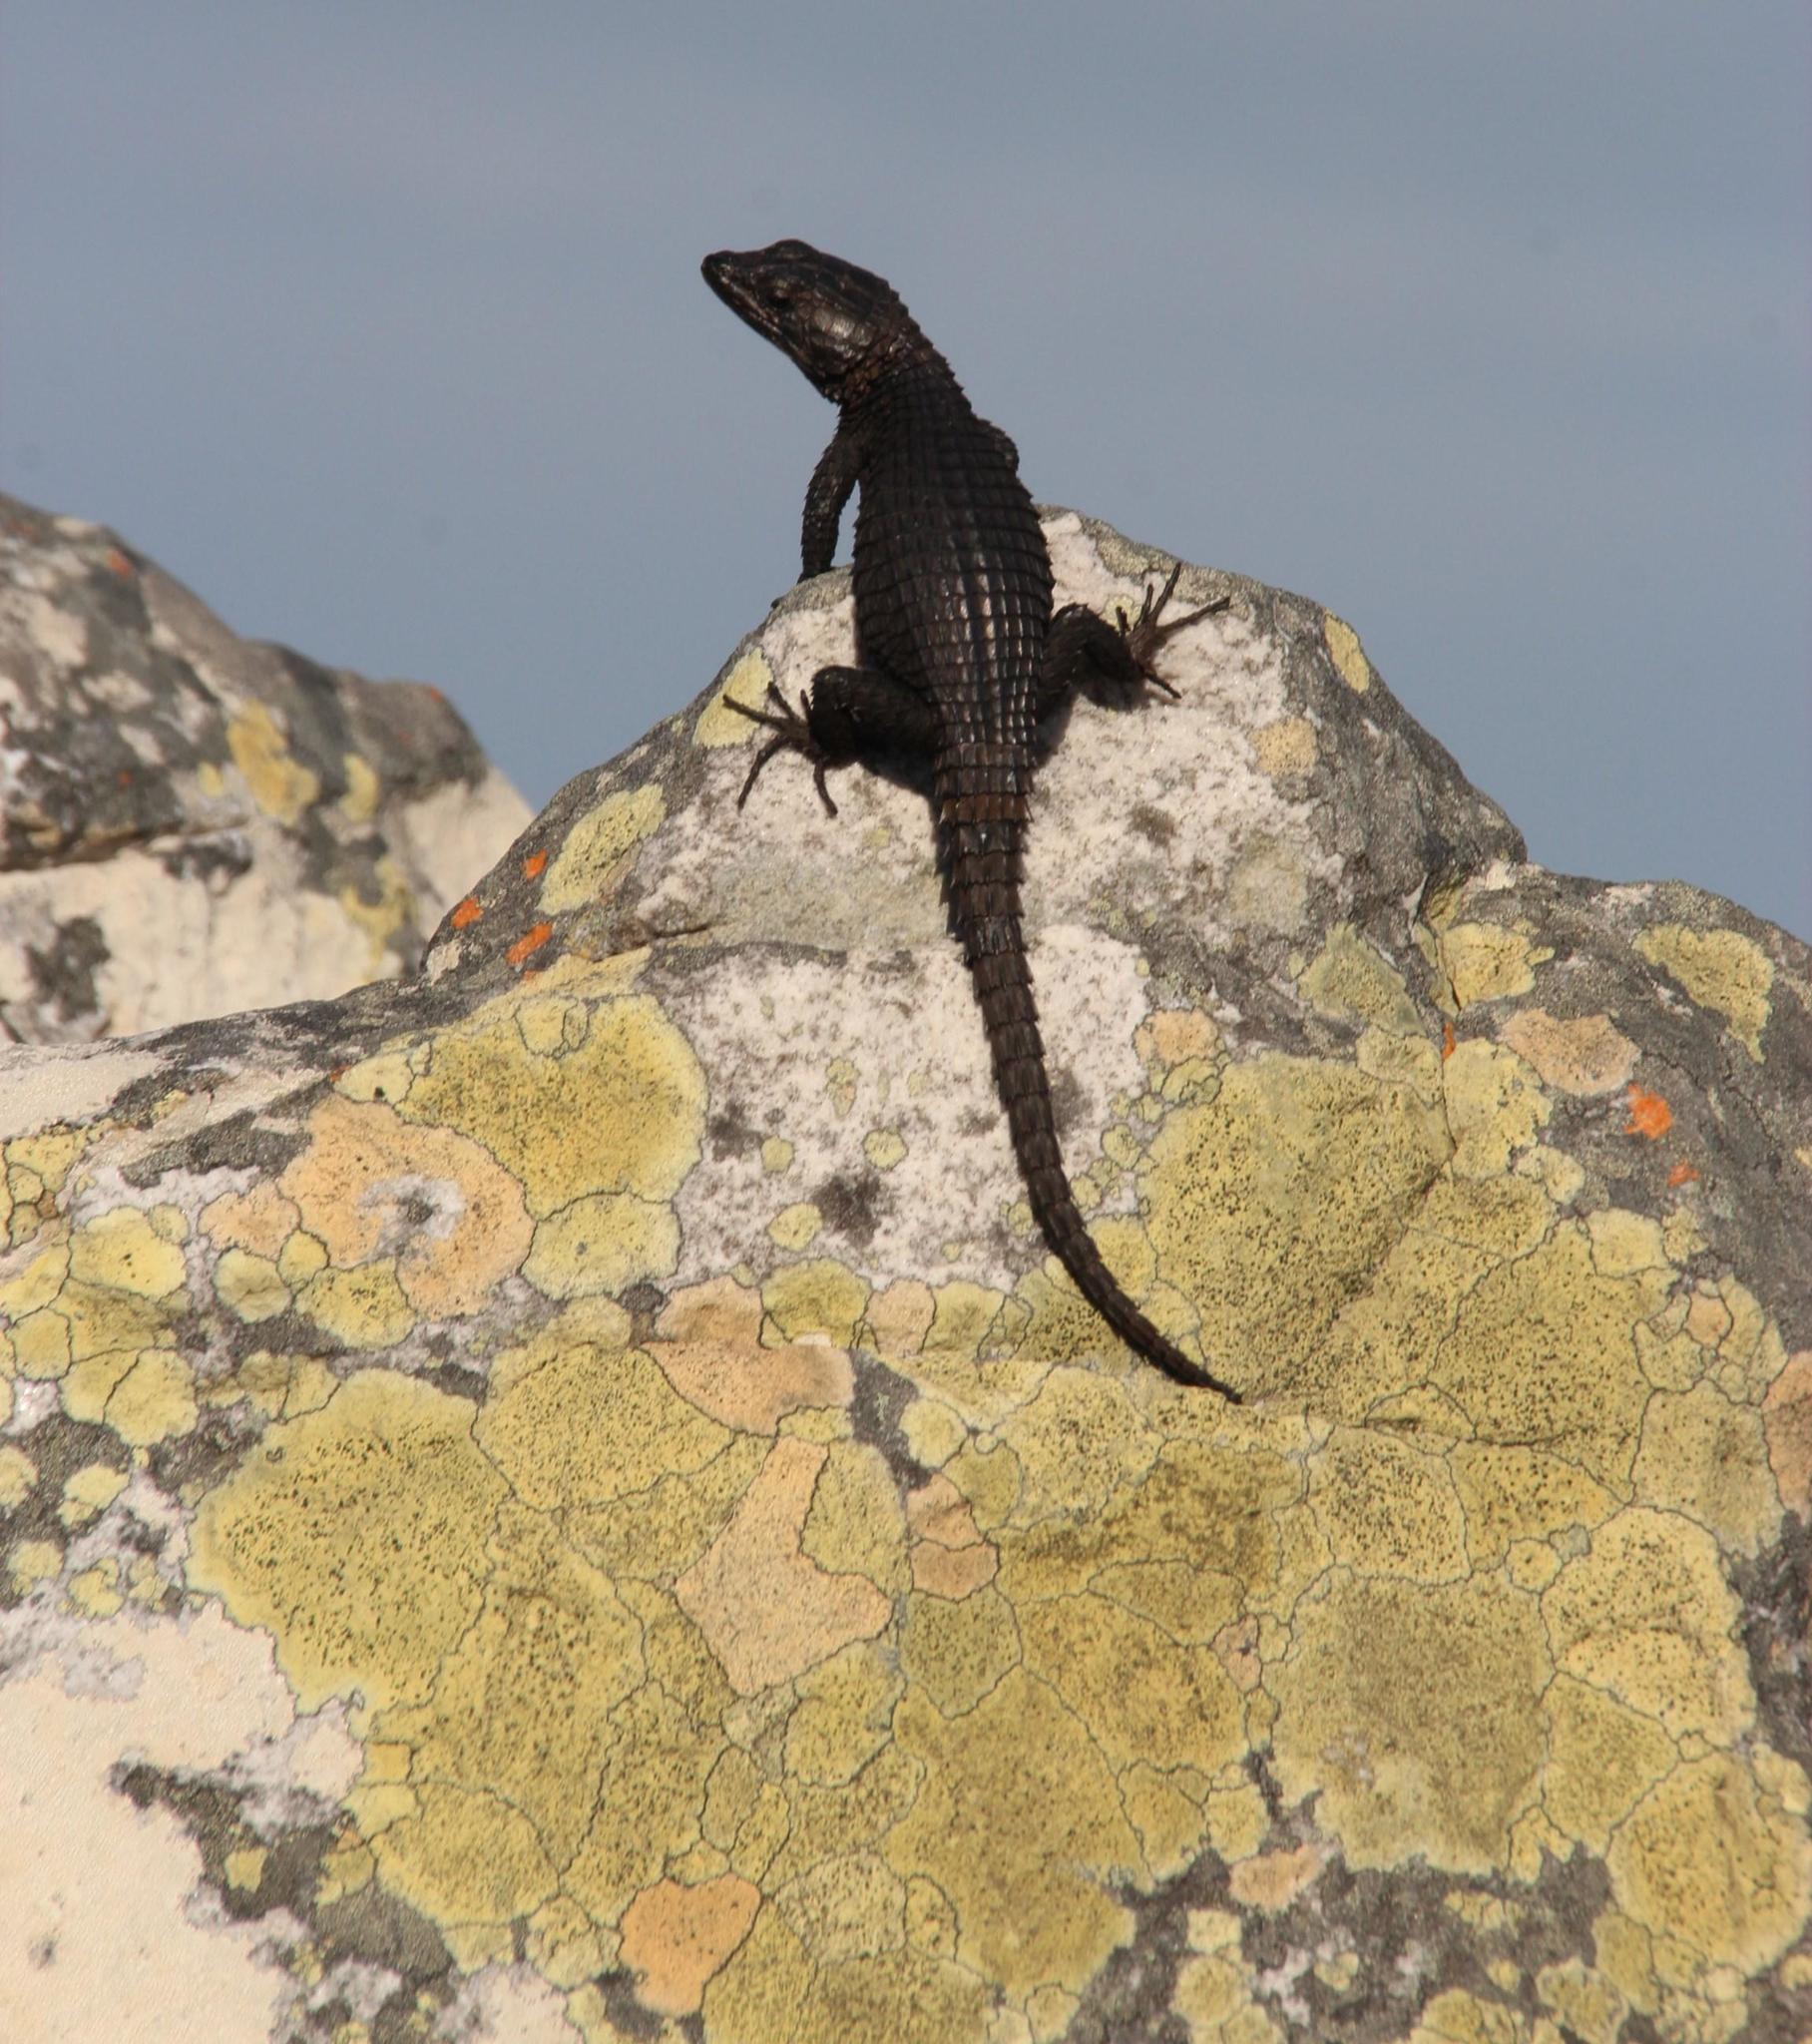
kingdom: Animalia
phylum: Chordata
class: Squamata
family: Cordylidae
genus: Cordylus
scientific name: Cordylus niger
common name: Black girdled lizard
